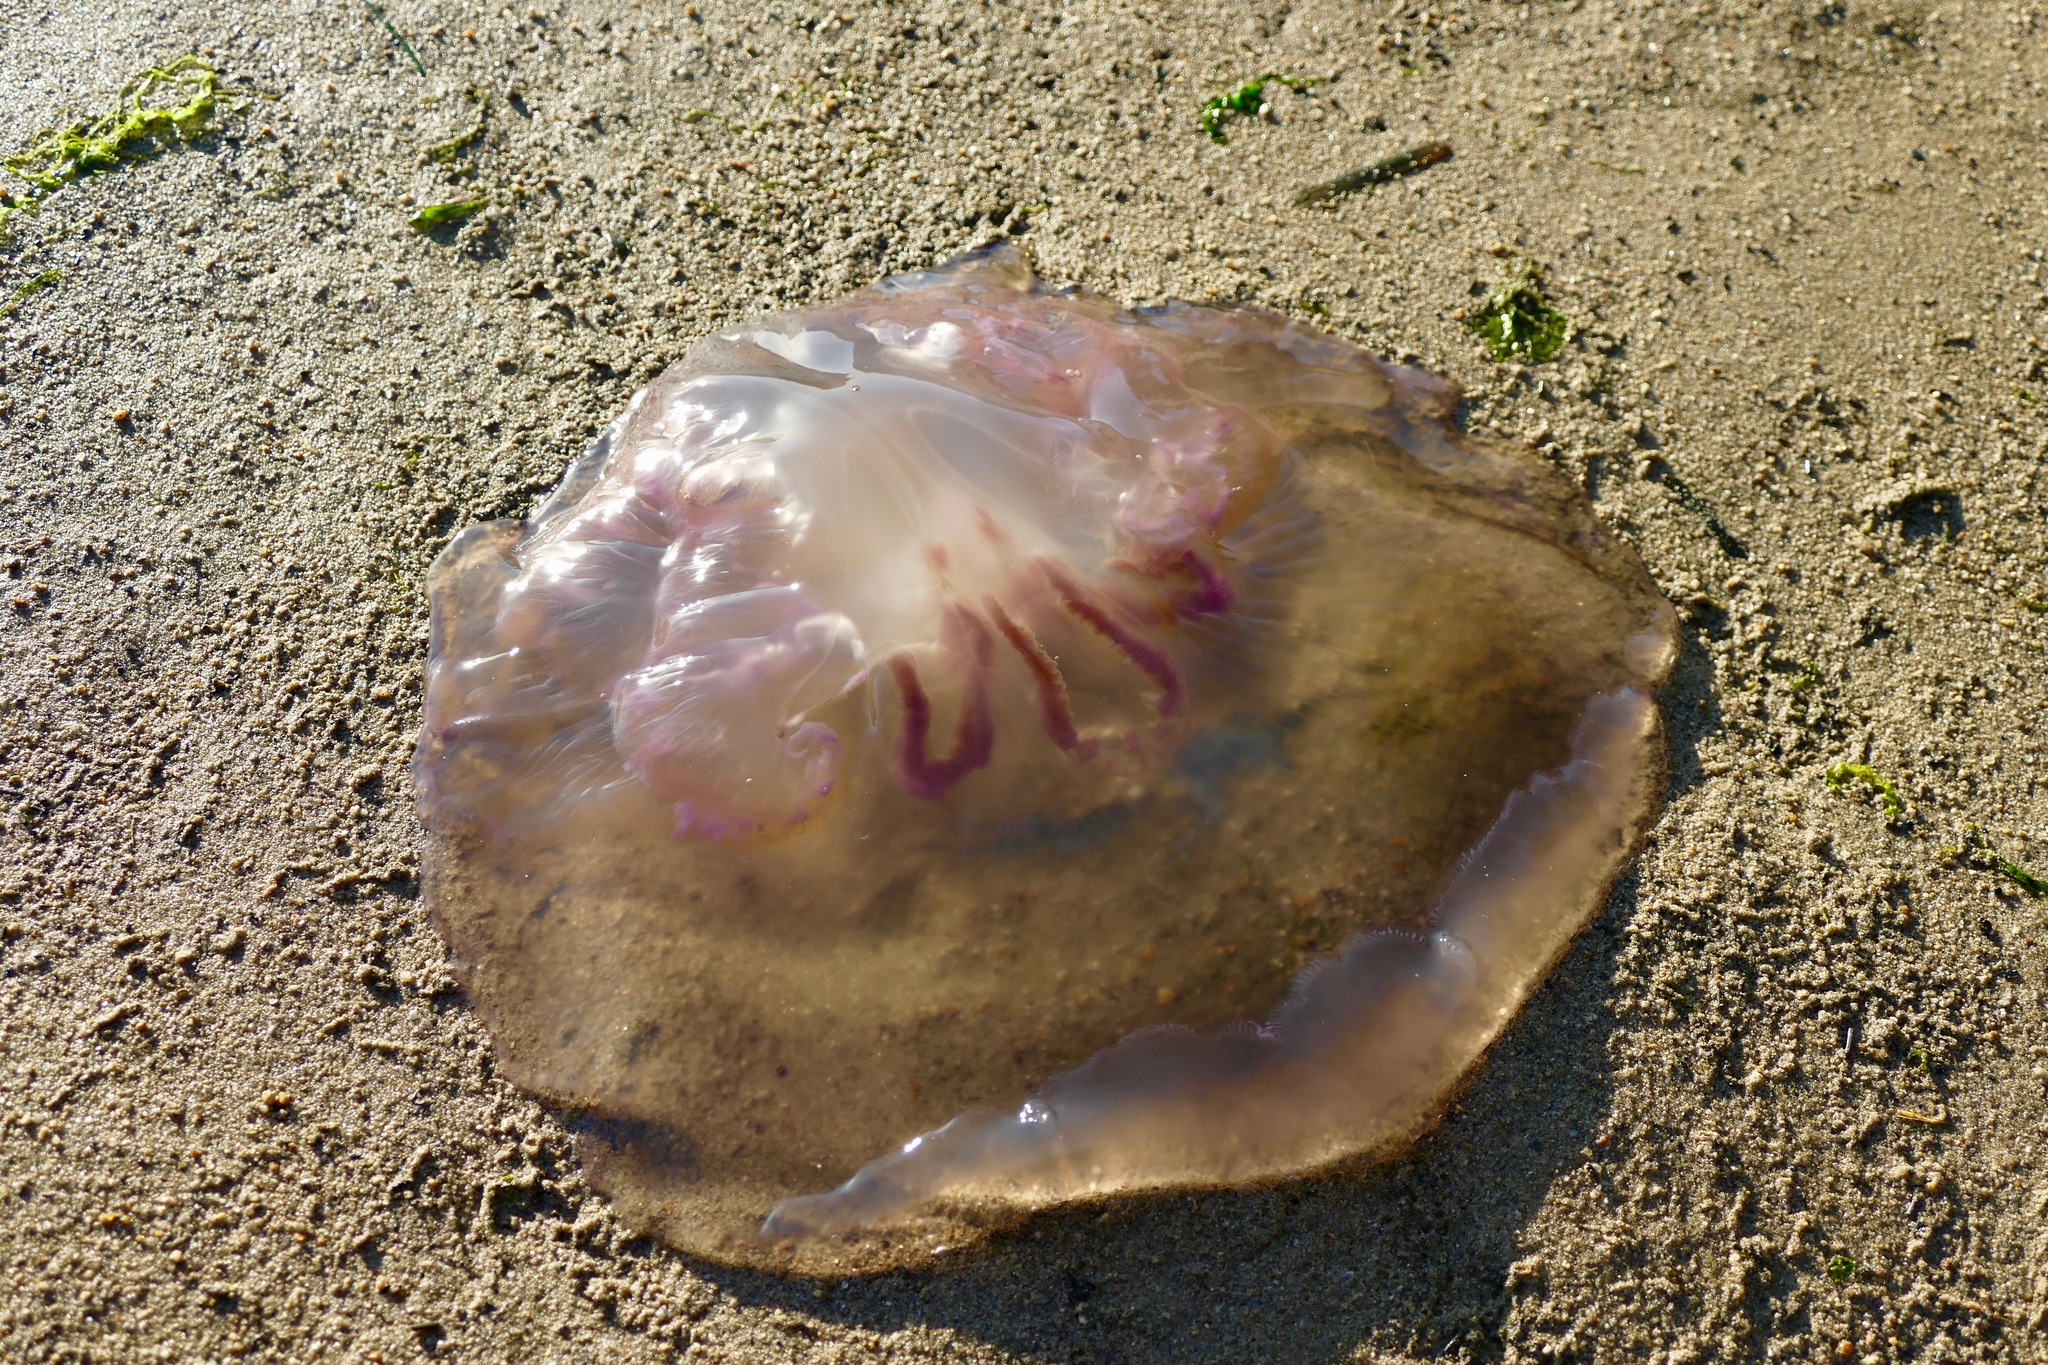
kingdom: Animalia
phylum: Cnidaria
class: Scyphozoa
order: Semaeostomeae
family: Ulmaridae
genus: Aurelia
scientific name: Aurelia labiata
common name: Pacific moon jelly
